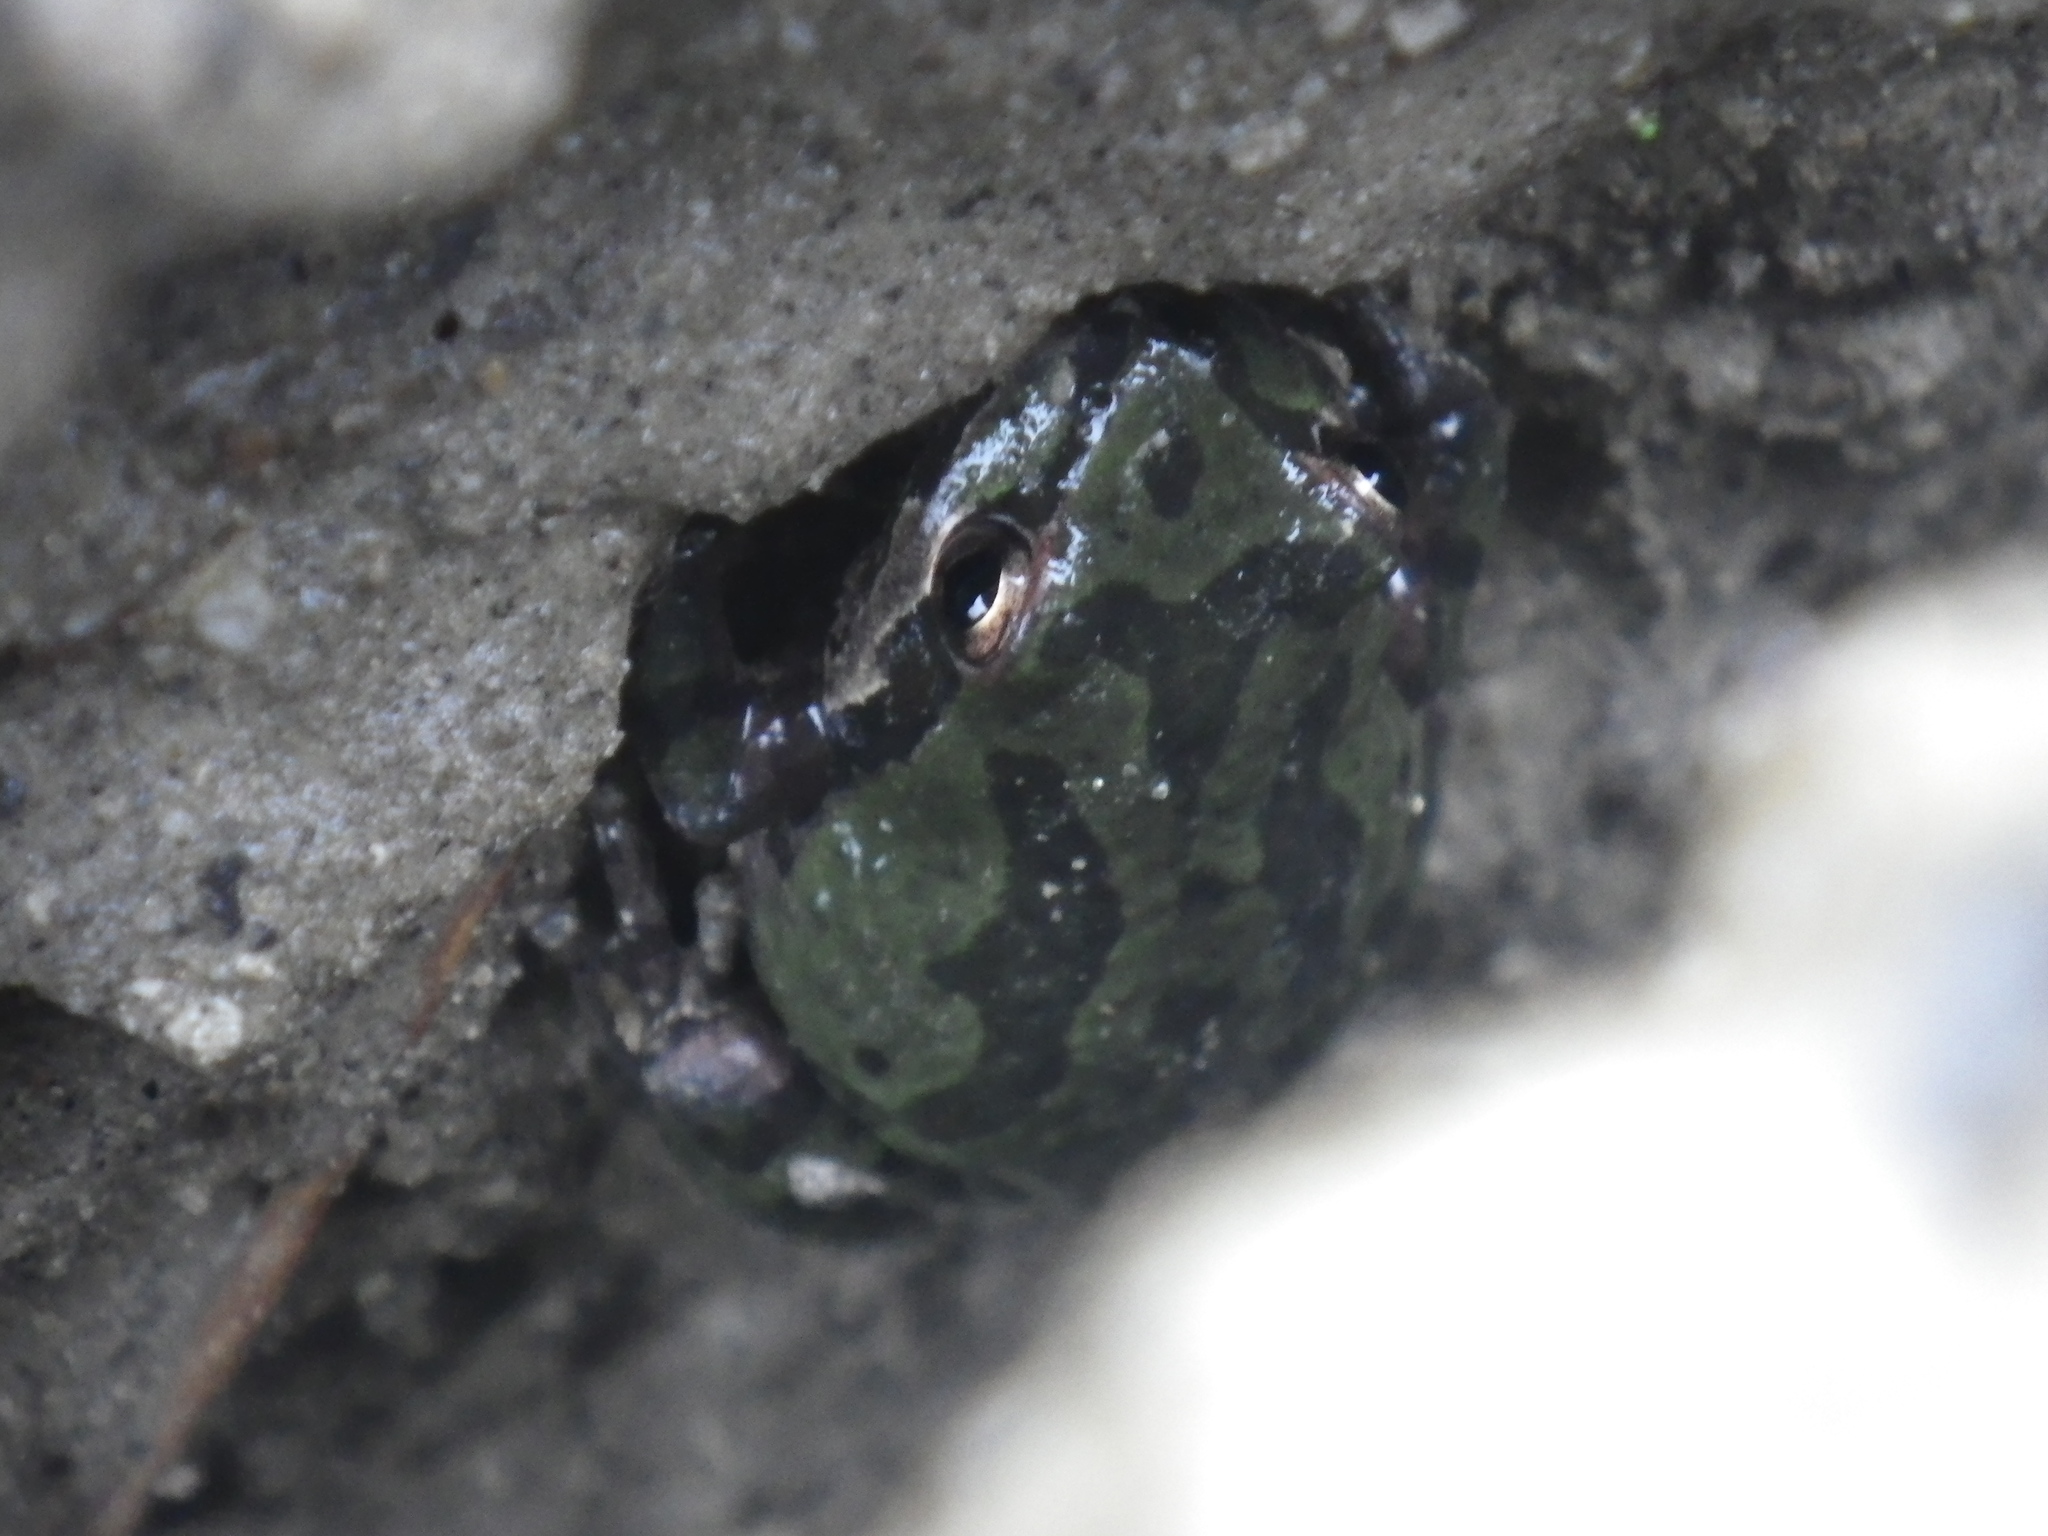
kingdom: Animalia
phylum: Chordata
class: Amphibia
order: Anura
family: Hylidae
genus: Pseudacris
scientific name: Pseudacris regilla
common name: Pacific chorus frog
